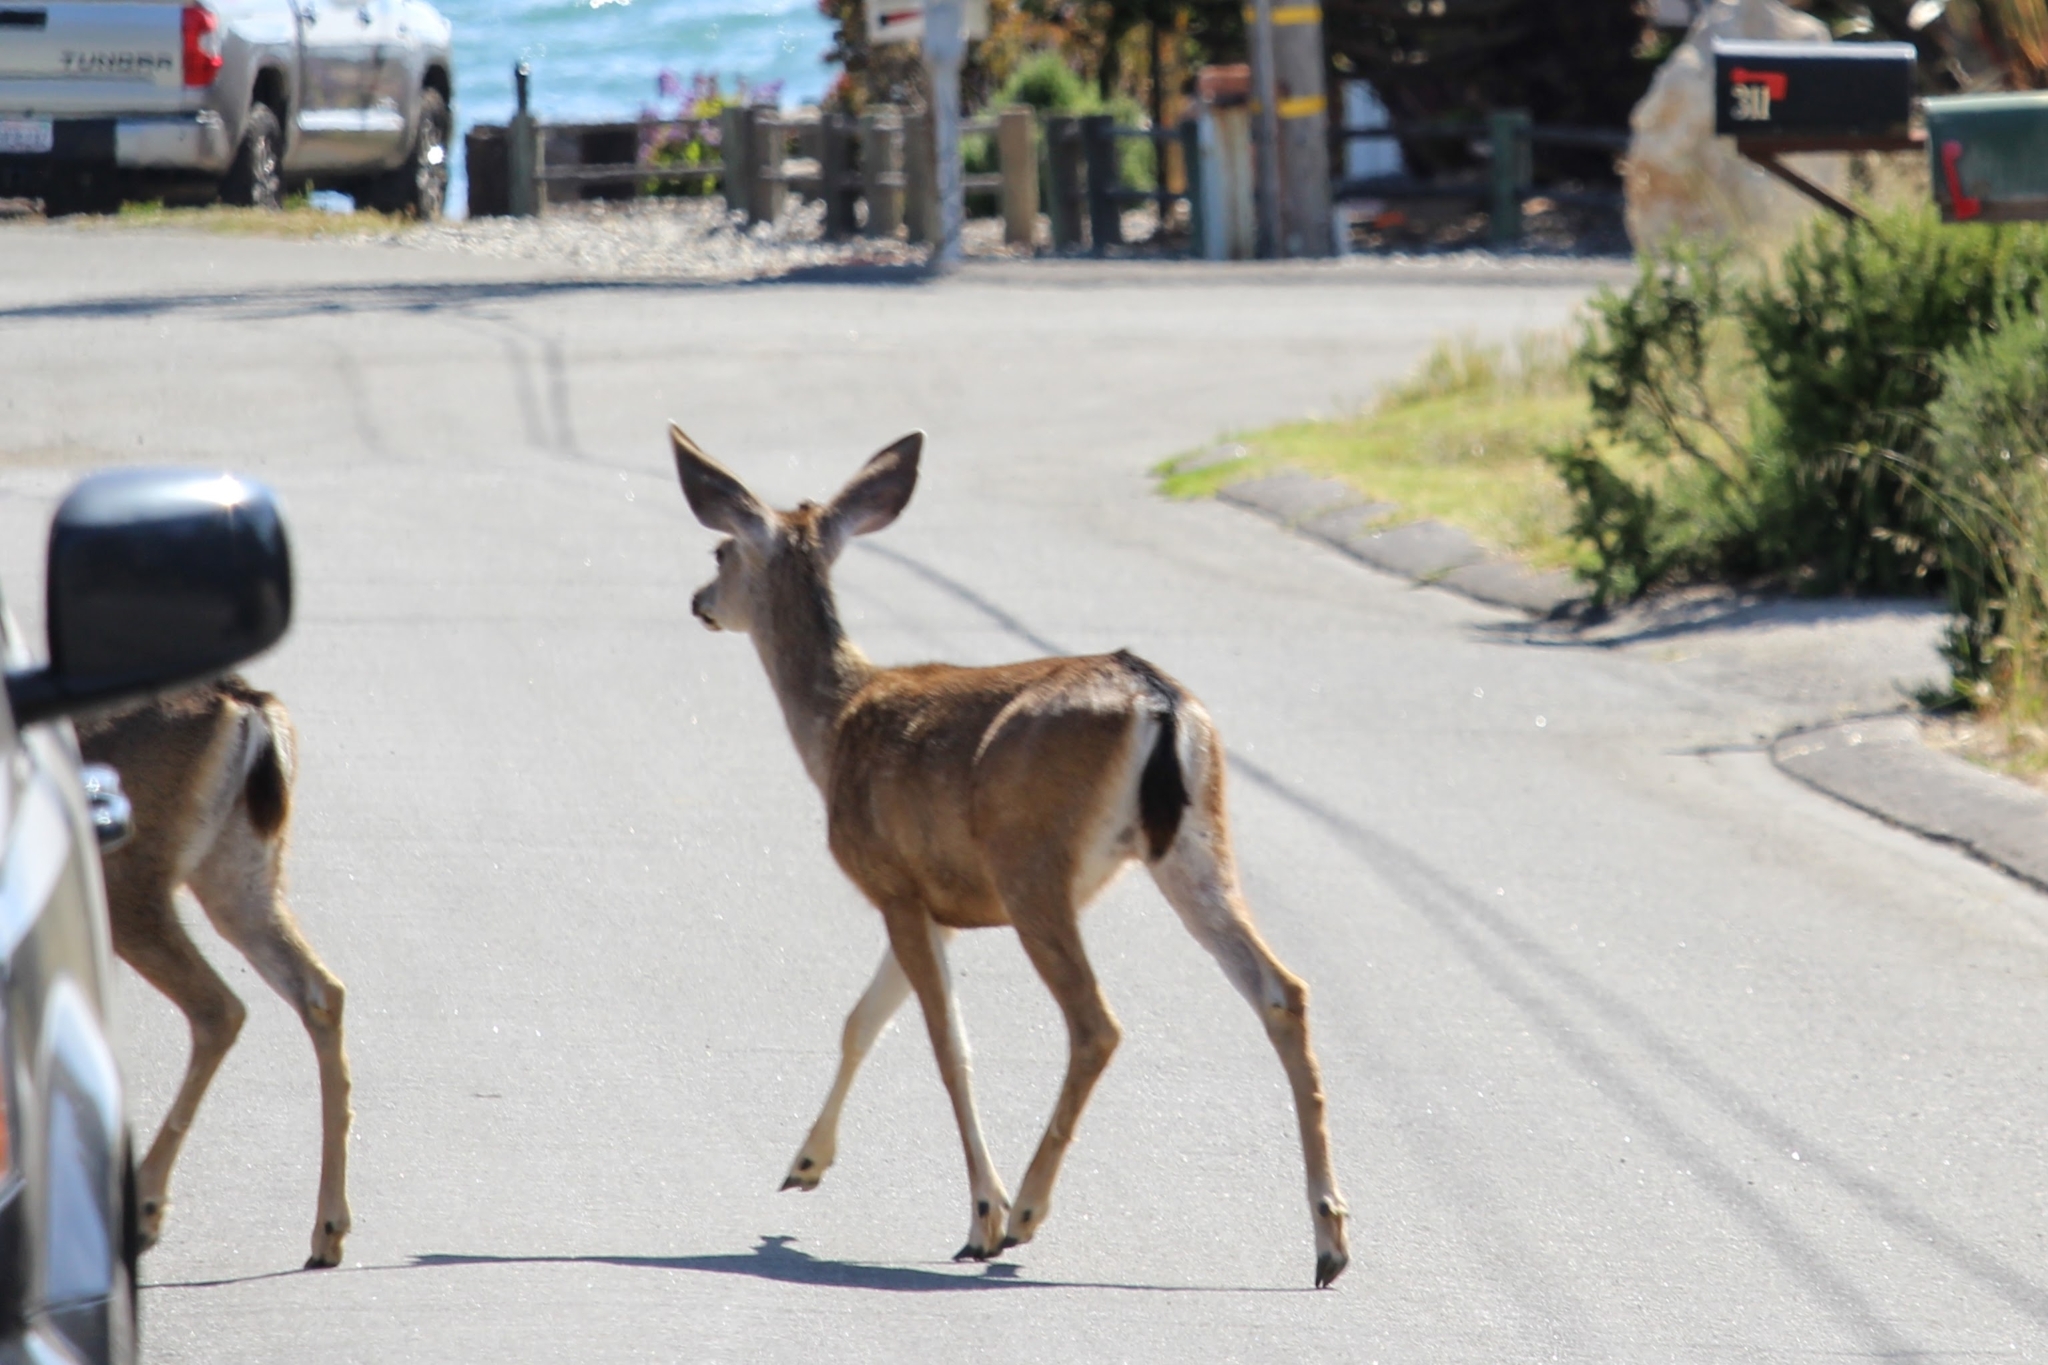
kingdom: Animalia
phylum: Chordata
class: Mammalia
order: Artiodactyla
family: Cervidae
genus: Odocoileus
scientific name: Odocoileus hemionus
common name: Mule deer
